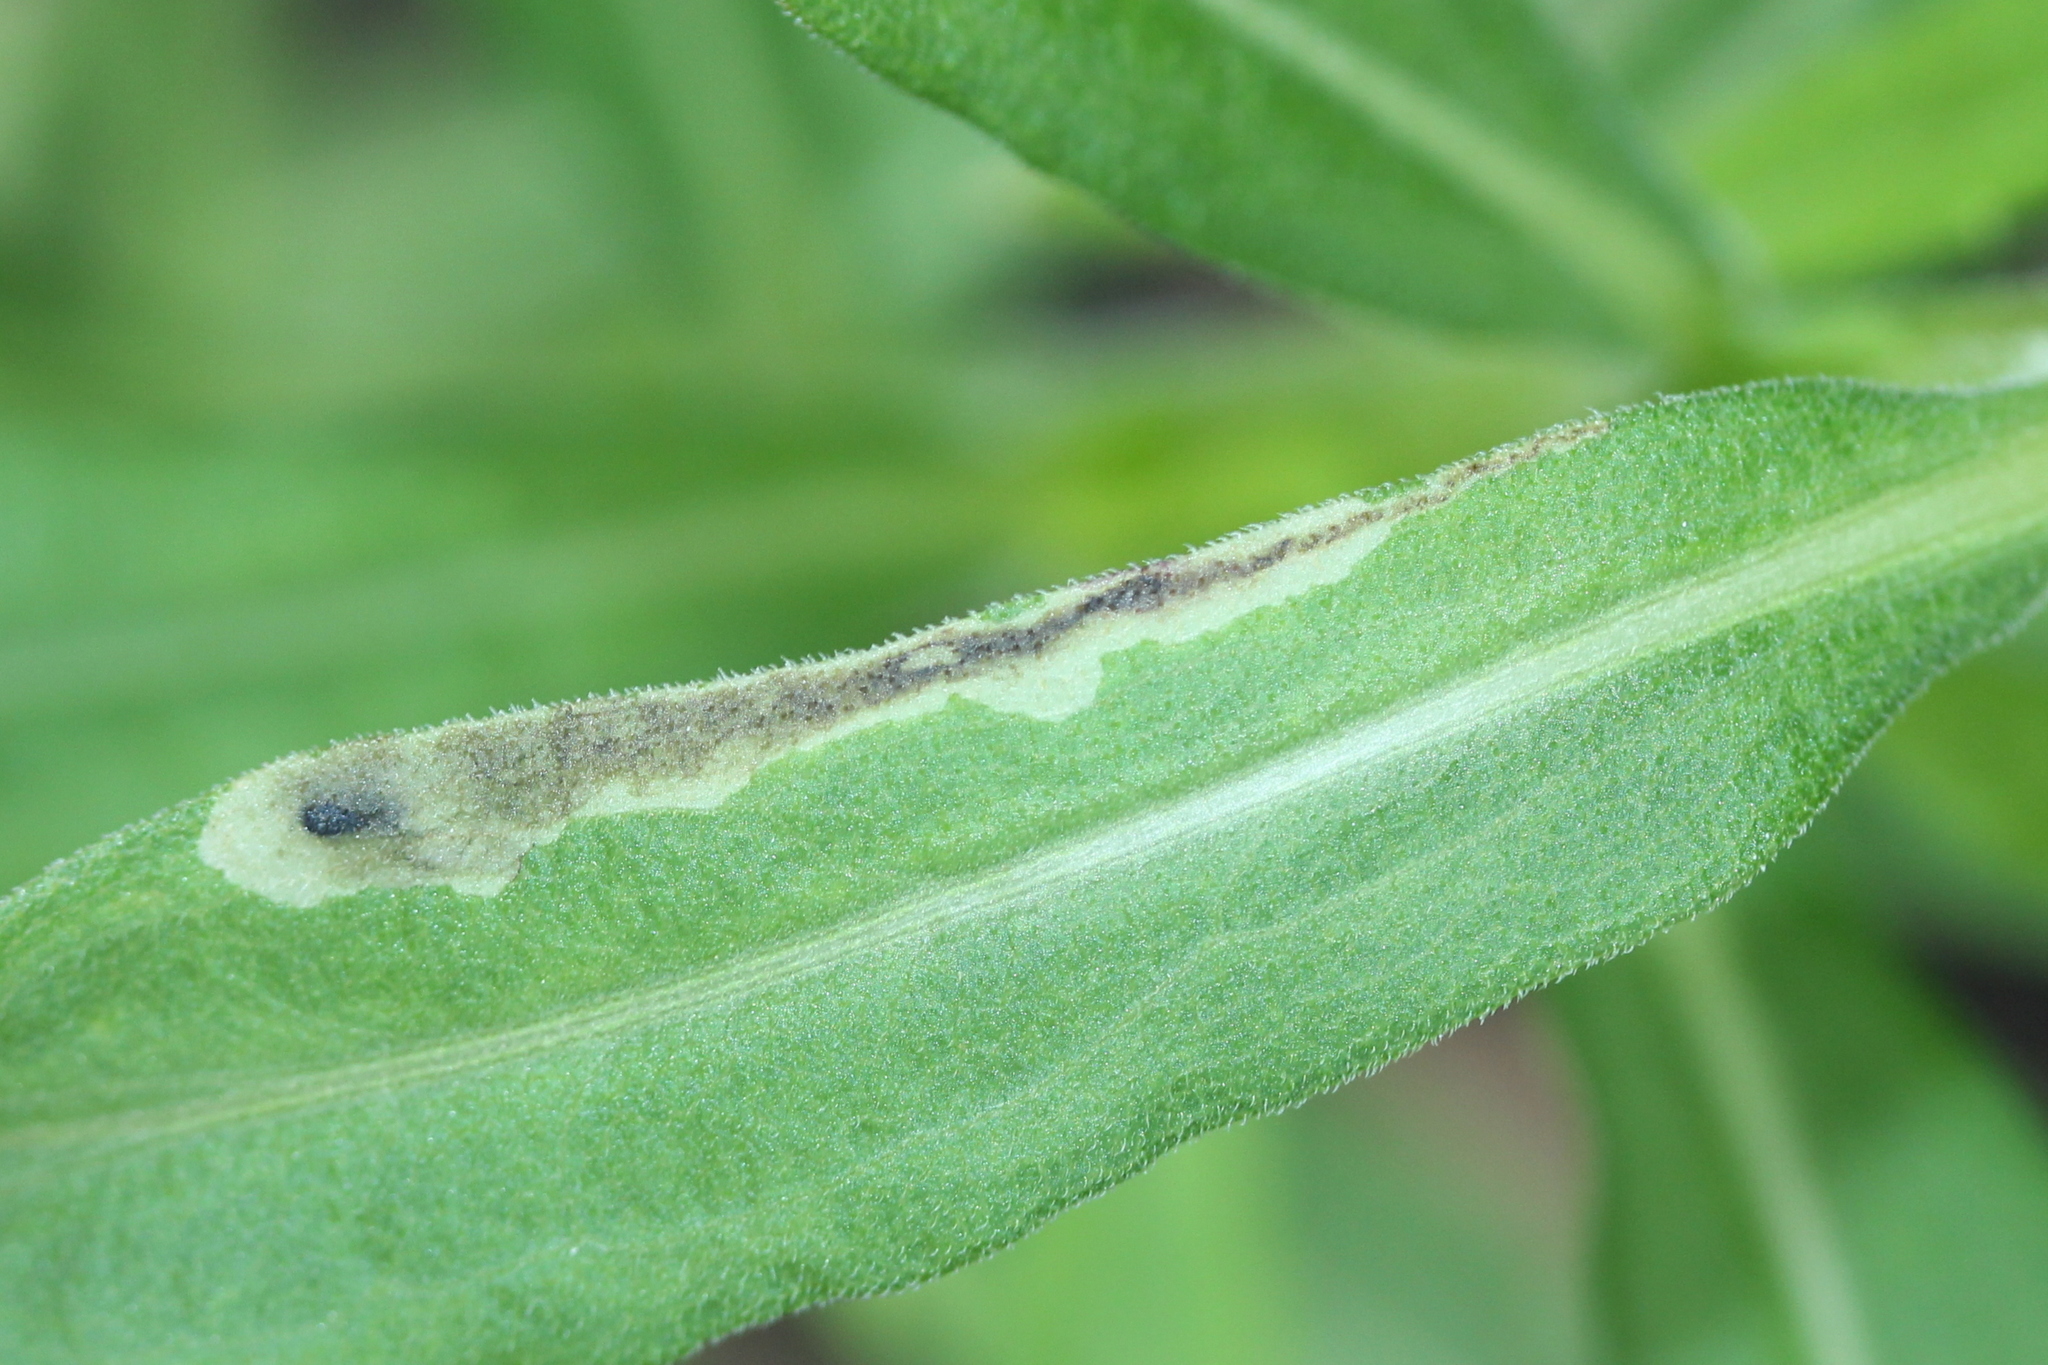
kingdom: Animalia
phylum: Arthropoda
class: Insecta
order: Diptera
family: Agromyzidae
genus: Calycomyza
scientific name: Calycomyza solidaginis
